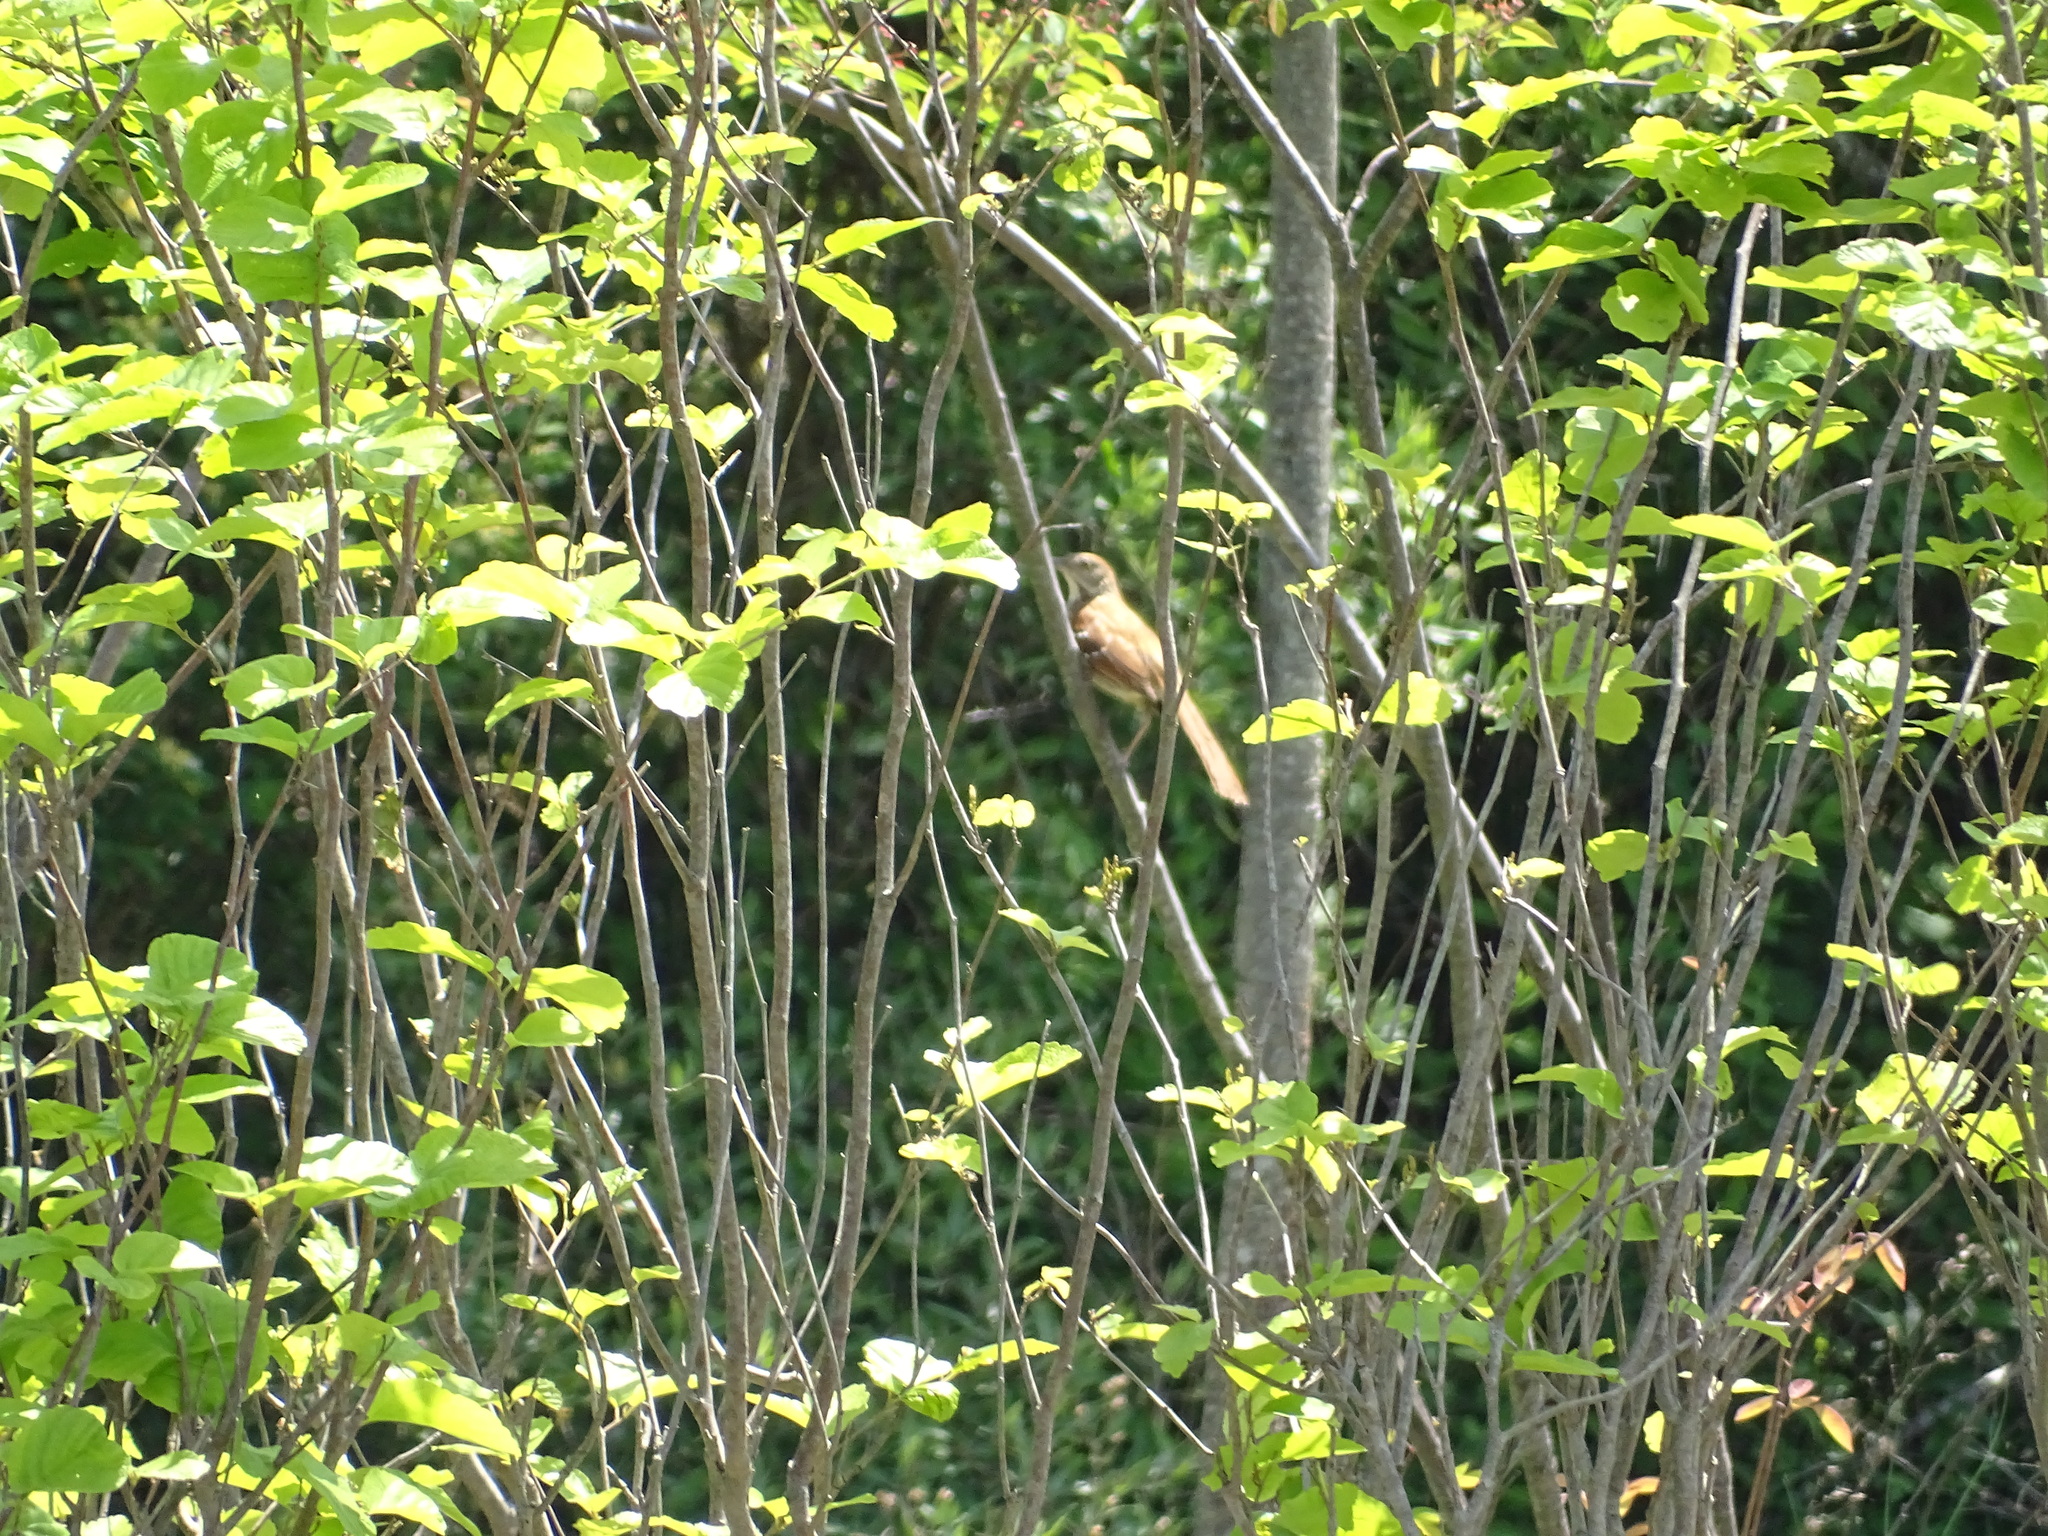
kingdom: Animalia
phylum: Chordata
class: Aves
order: Passeriformes
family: Mimidae
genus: Toxostoma
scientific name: Toxostoma rufum
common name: Brown thrasher
